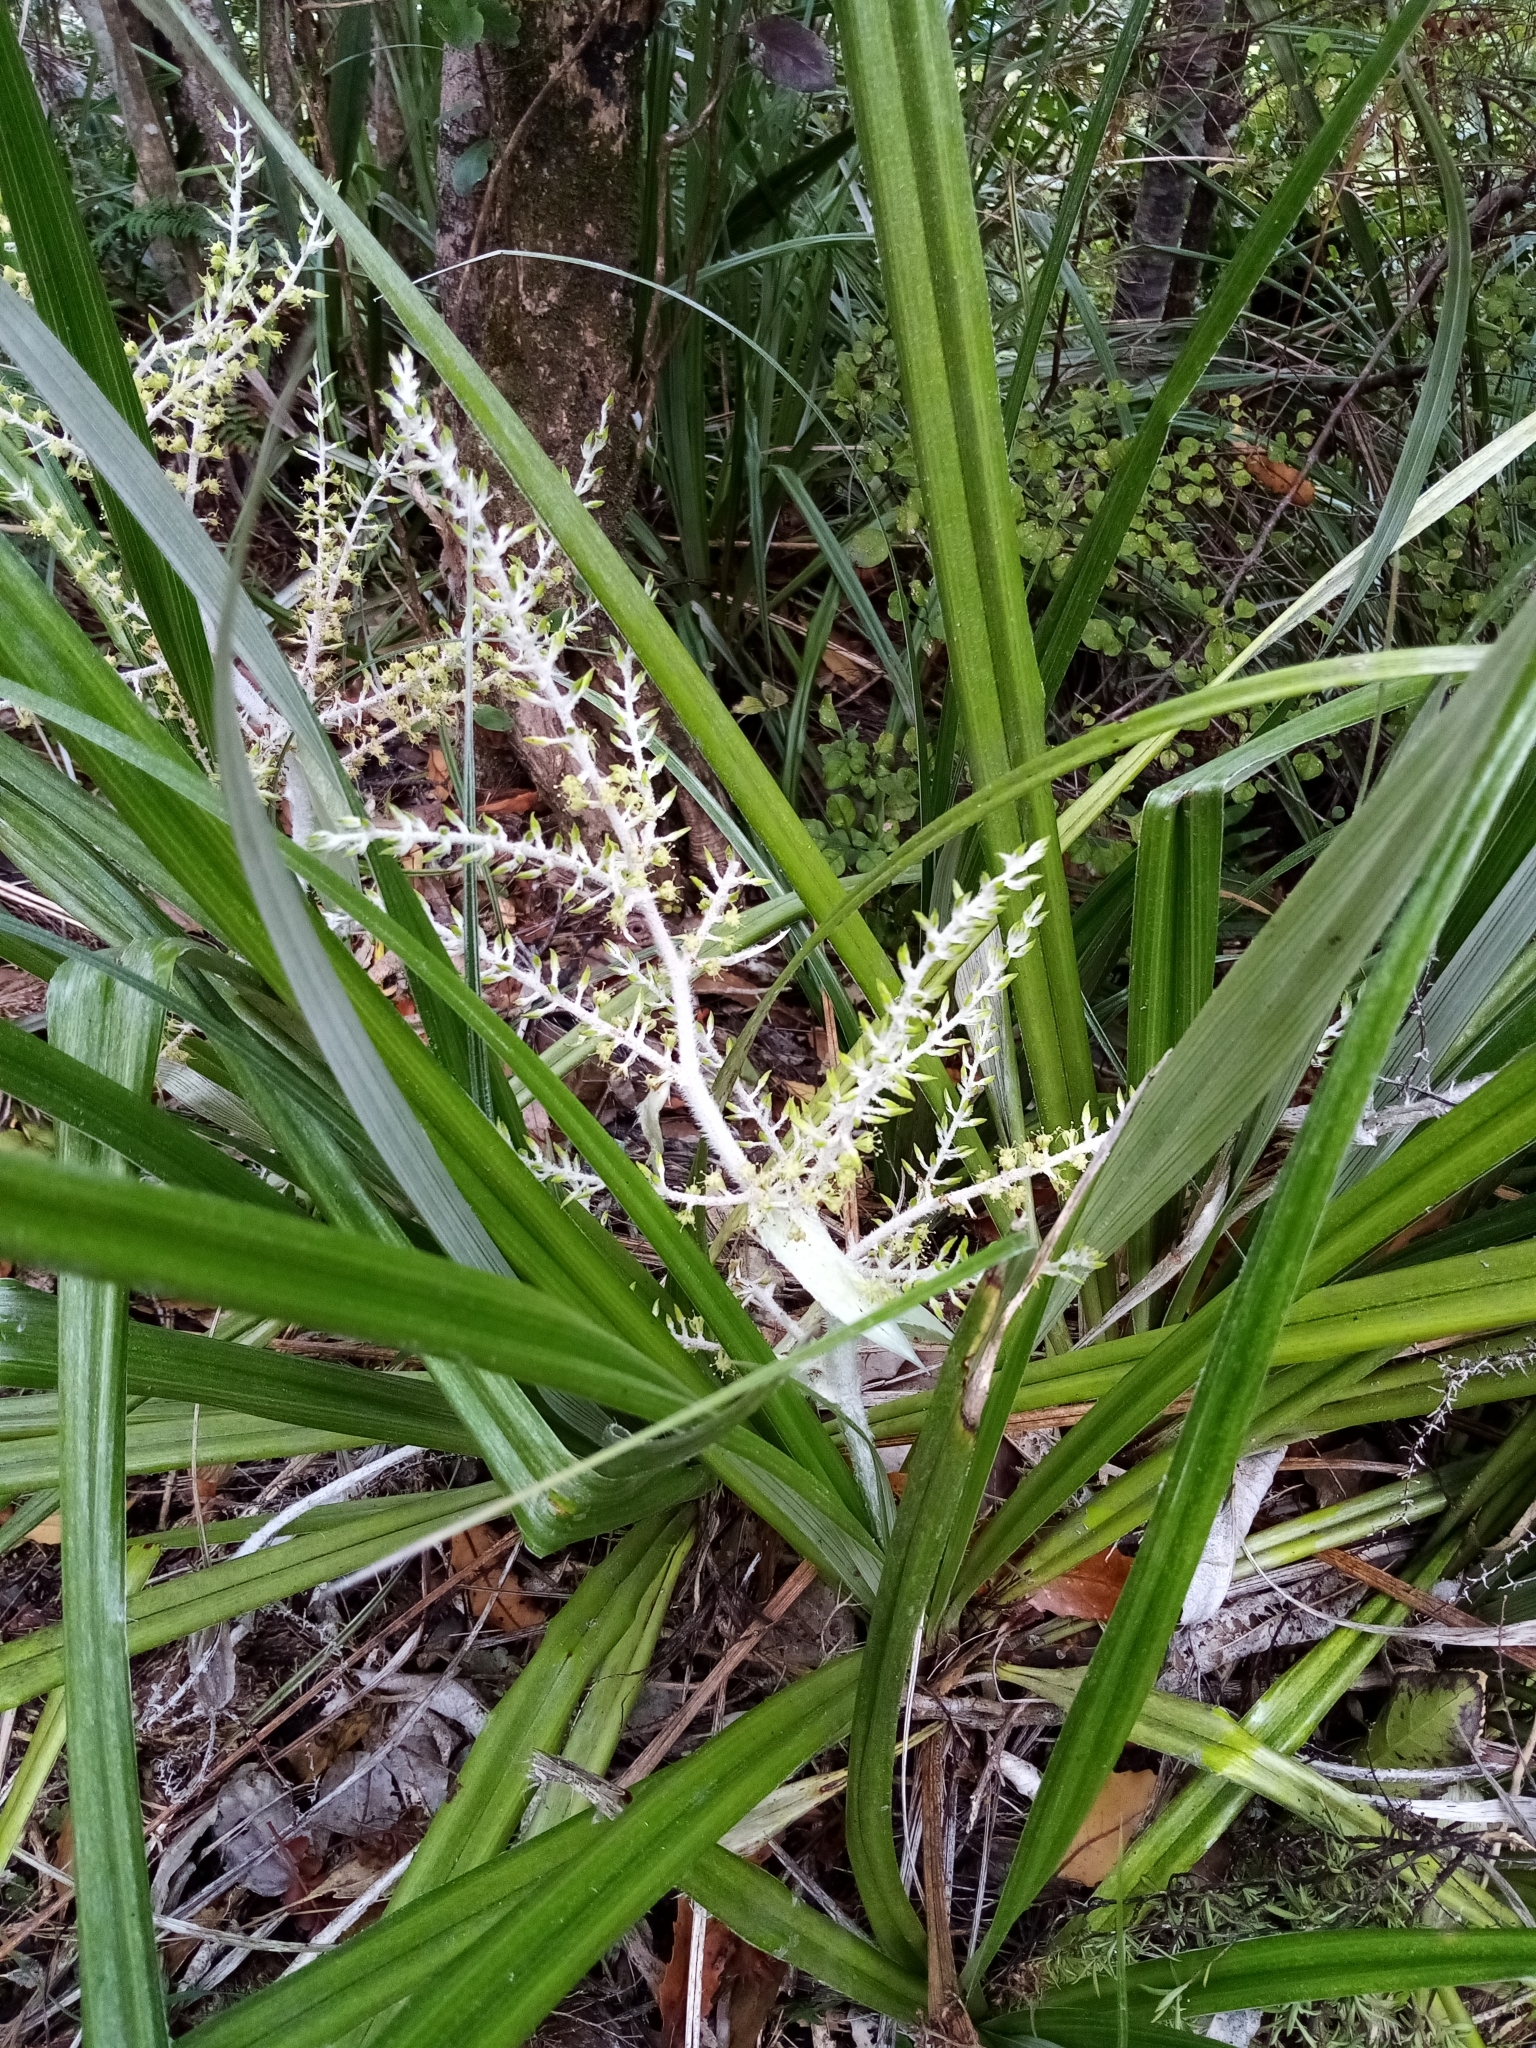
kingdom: Plantae
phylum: Tracheophyta
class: Liliopsida
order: Asparagales
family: Asteliaceae
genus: Astelia
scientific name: Astelia banksii
